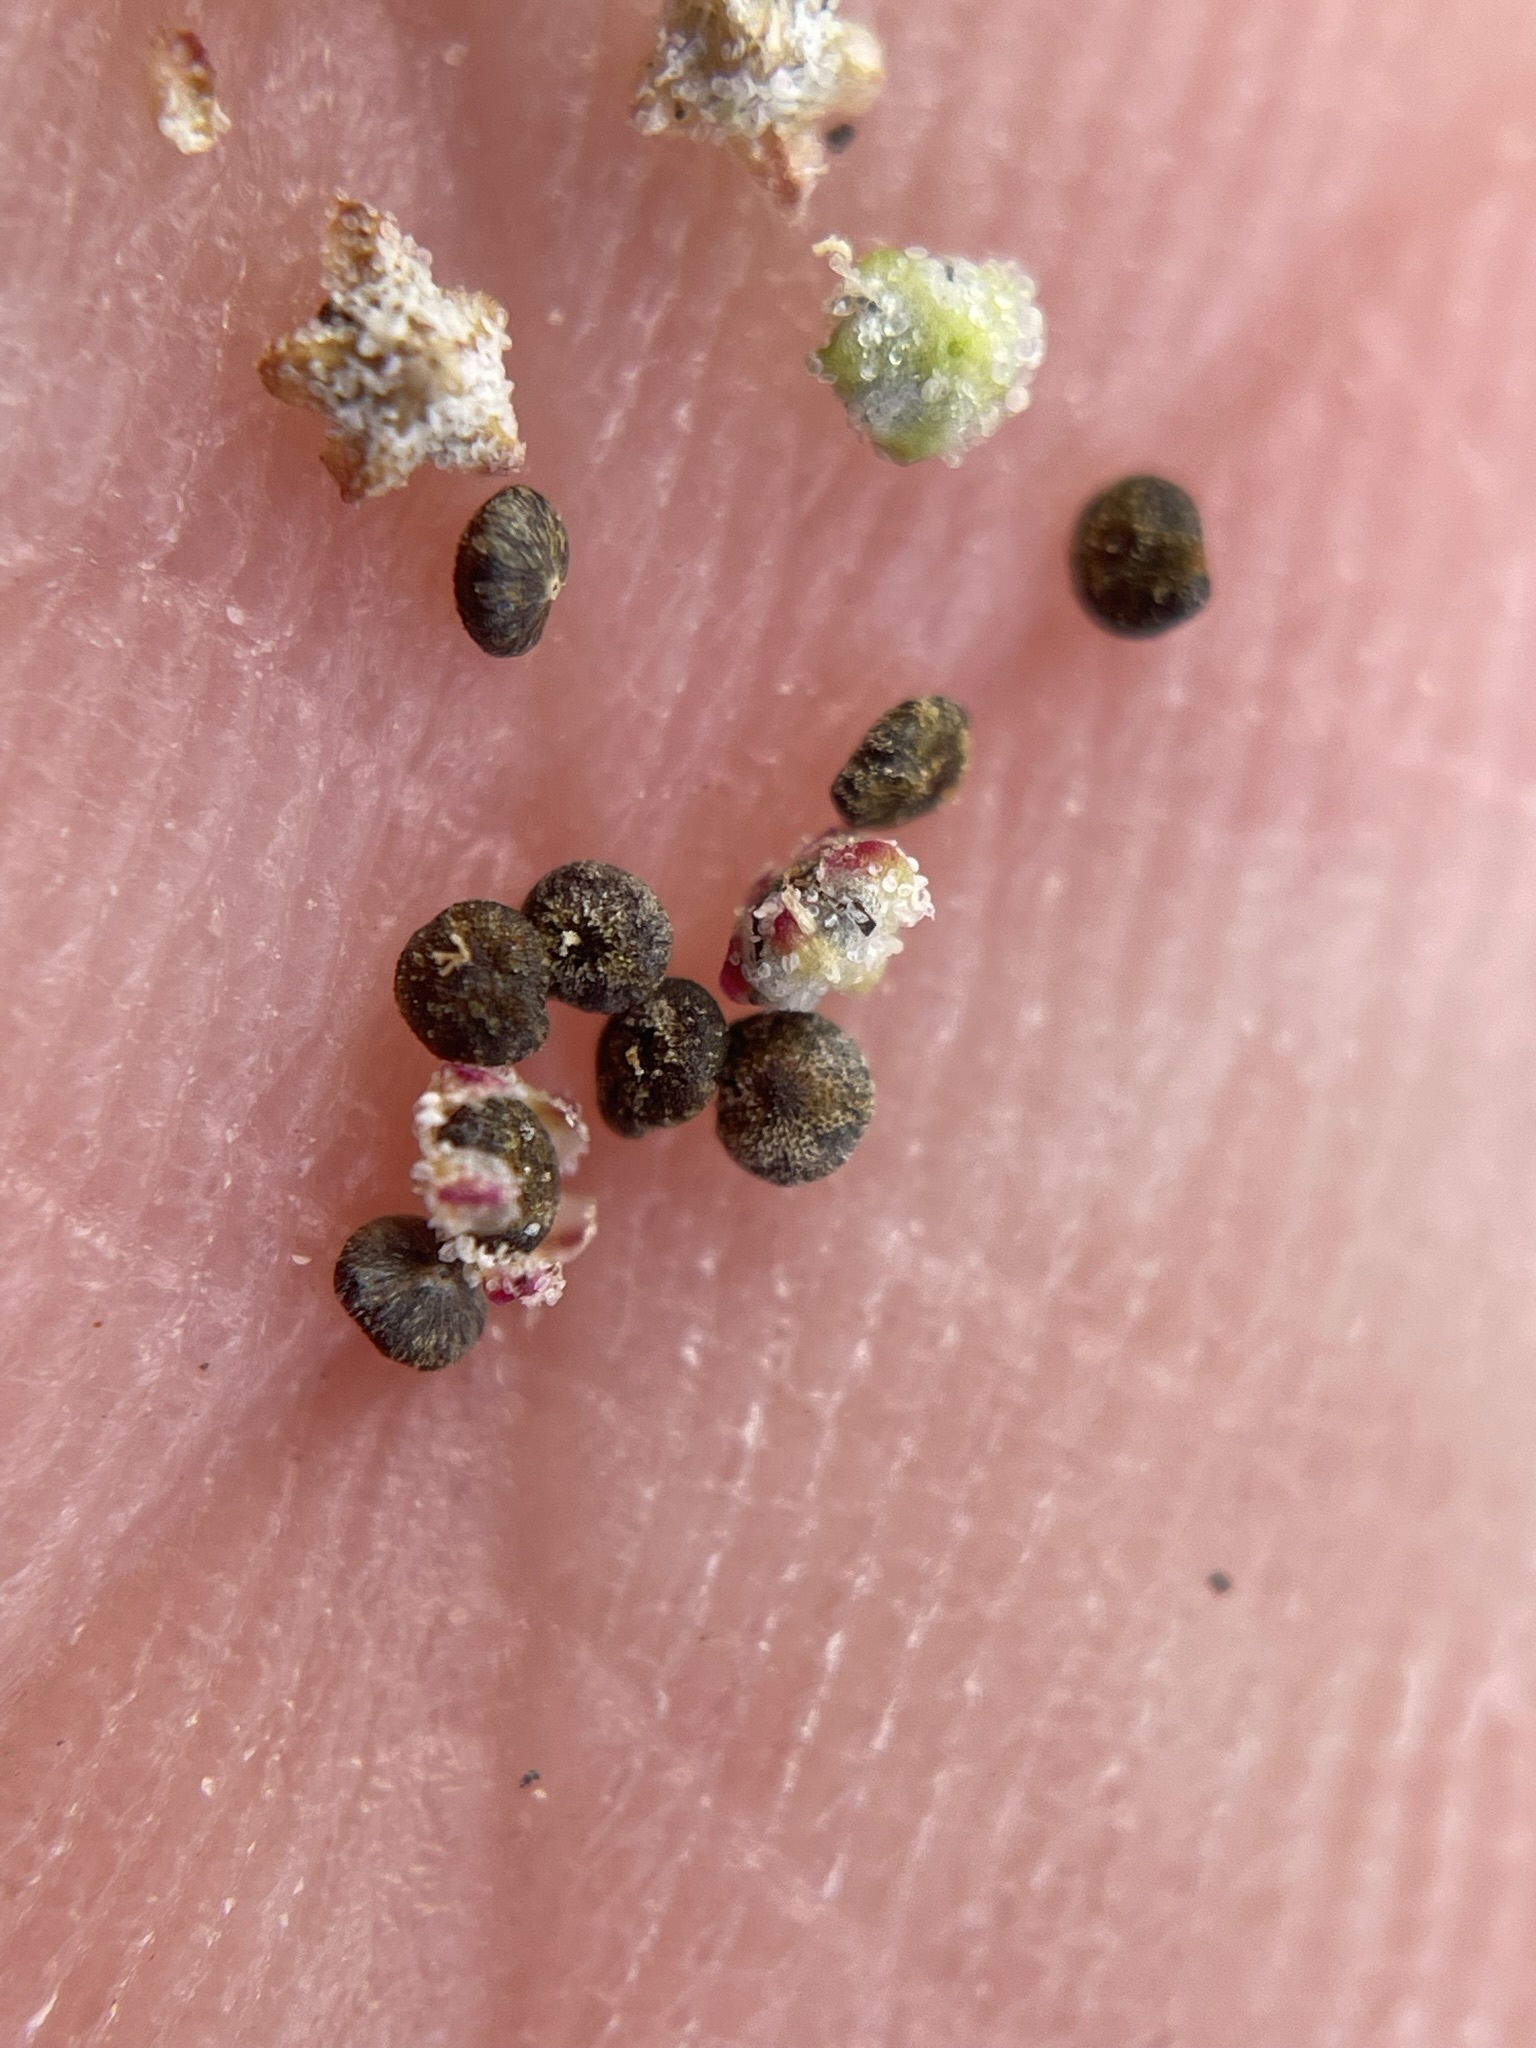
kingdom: Plantae
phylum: Tracheophyta
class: Magnoliopsida
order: Caryophyllales
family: Amaranthaceae
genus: Chenopodium
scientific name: Chenopodium atrovirens
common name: Dark goosefoot
